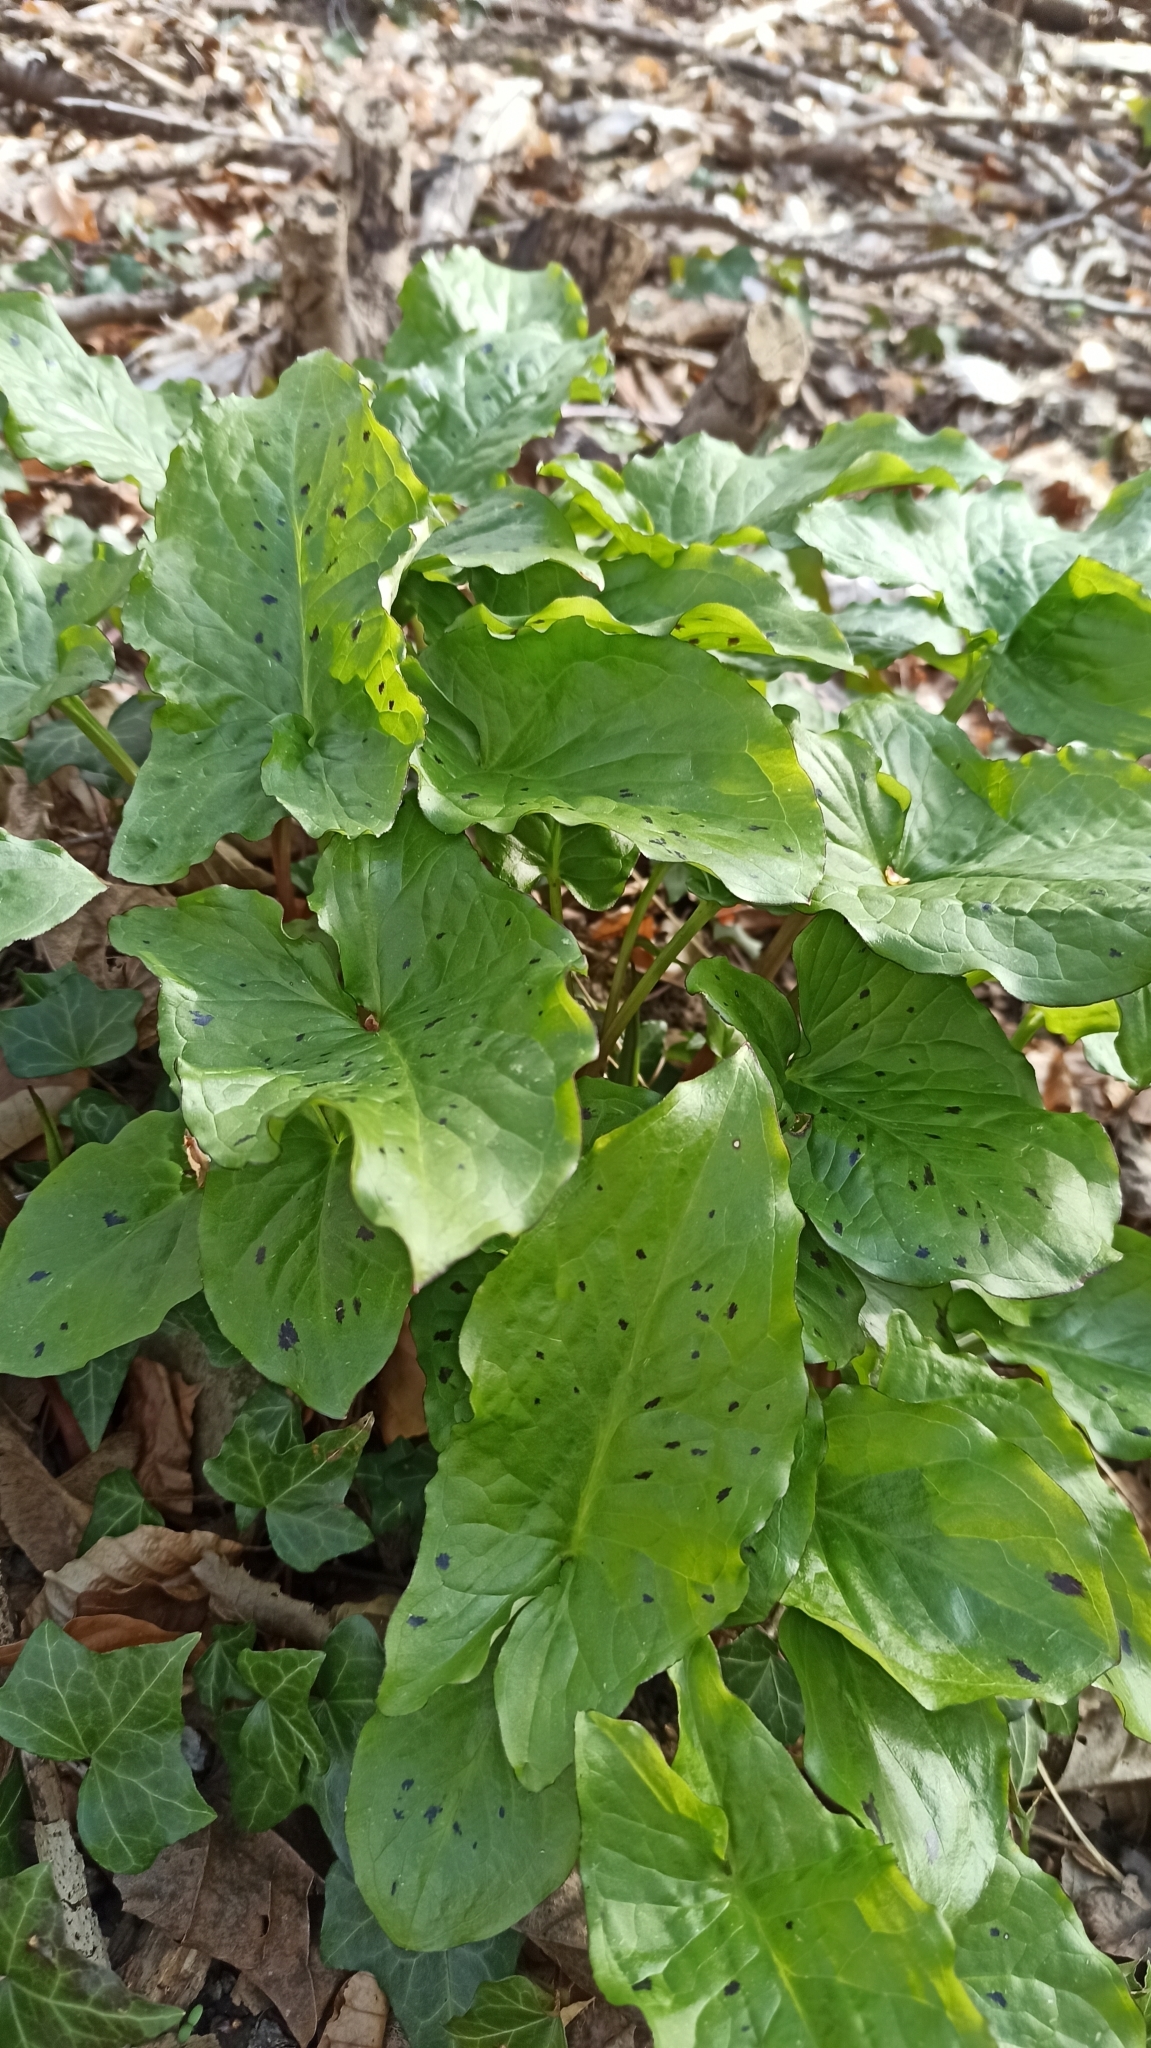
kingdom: Plantae
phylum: Tracheophyta
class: Liliopsida
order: Alismatales
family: Araceae
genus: Arum
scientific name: Arum maculatum
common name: Lords-and-ladies
